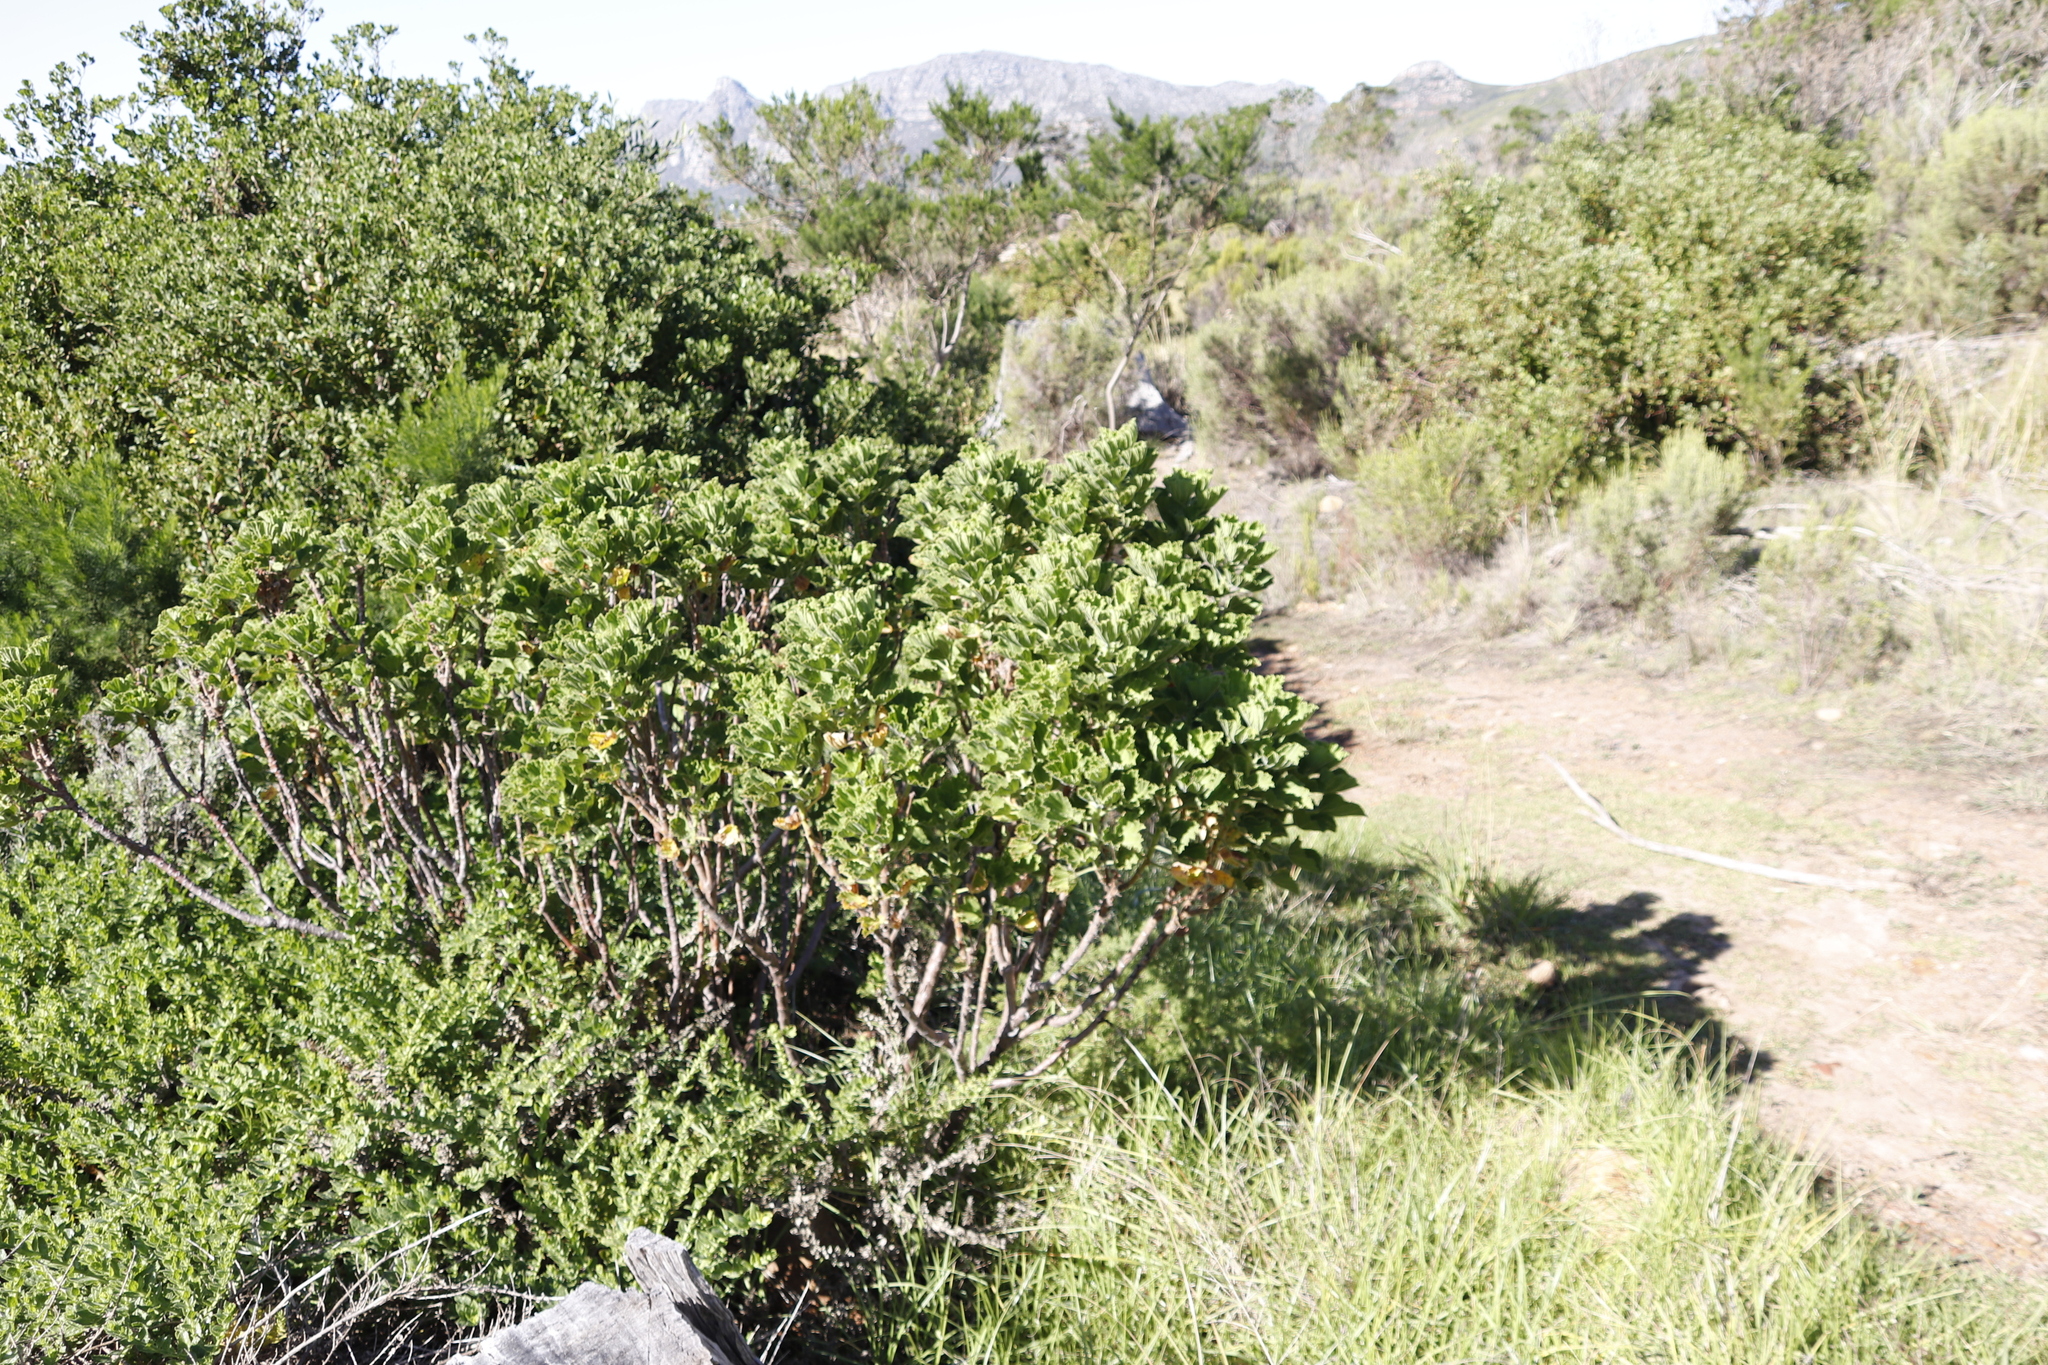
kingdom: Plantae
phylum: Tracheophyta
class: Magnoliopsida
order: Geraniales
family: Geraniaceae
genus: Pelargonium
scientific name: Pelargonium cucullatum
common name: Tree pelargonium
